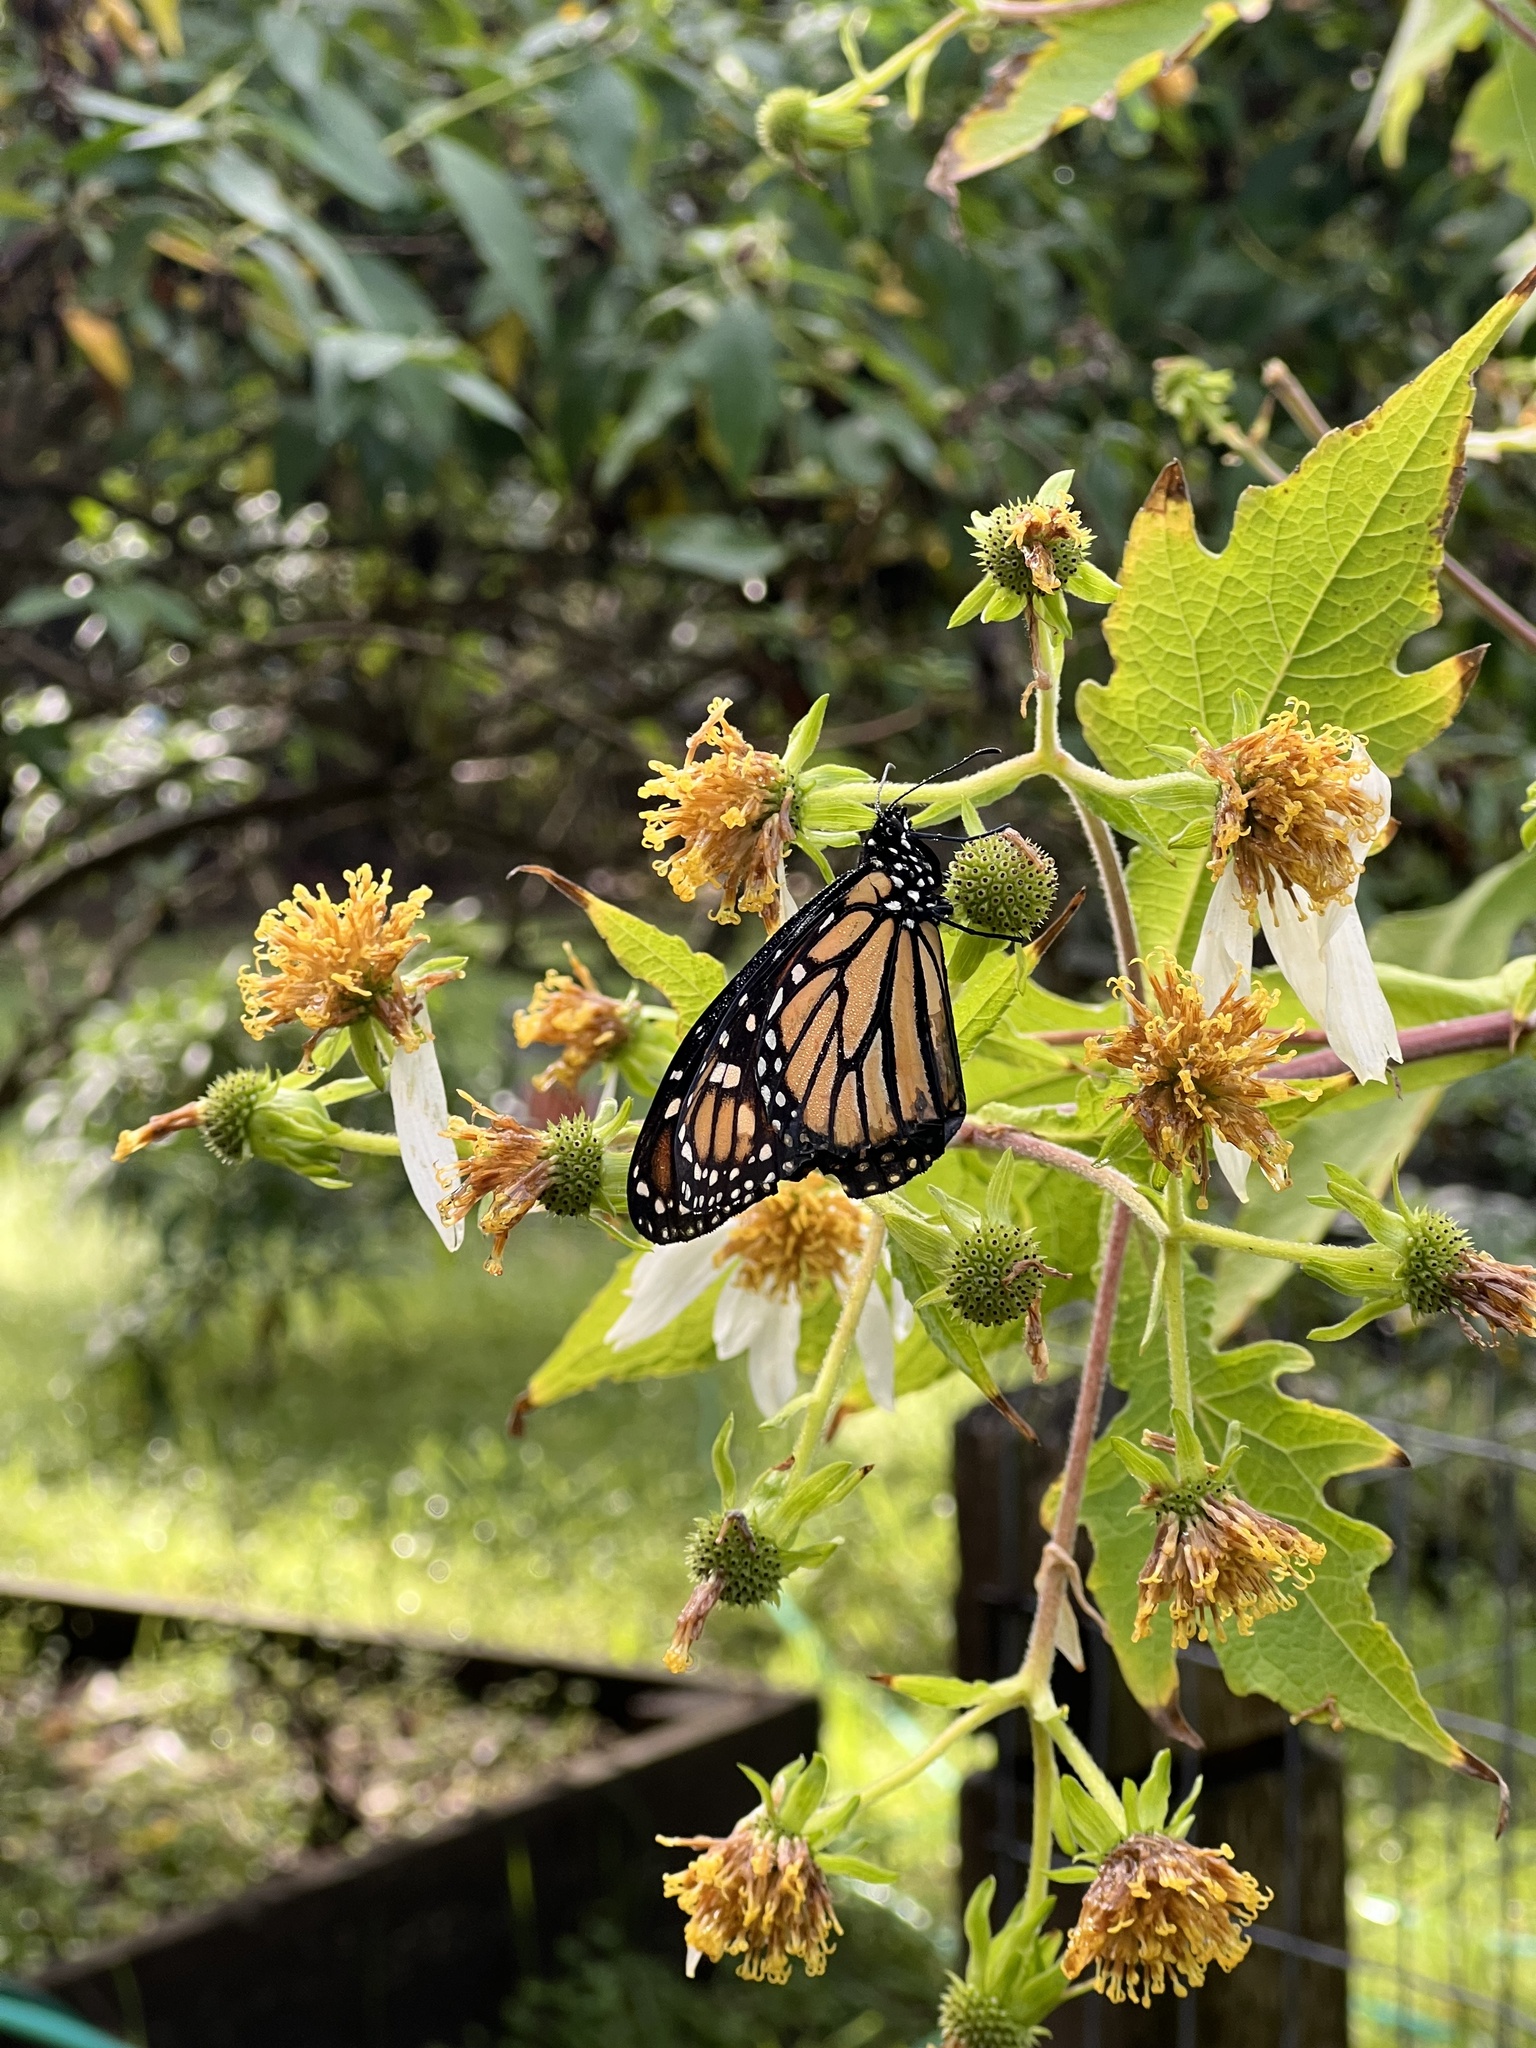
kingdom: Animalia
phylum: Arthropoda
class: Insecta
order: Lepidoptera
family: Nymphalidae
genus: Danaus
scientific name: Danaus plexippus
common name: Monarch
